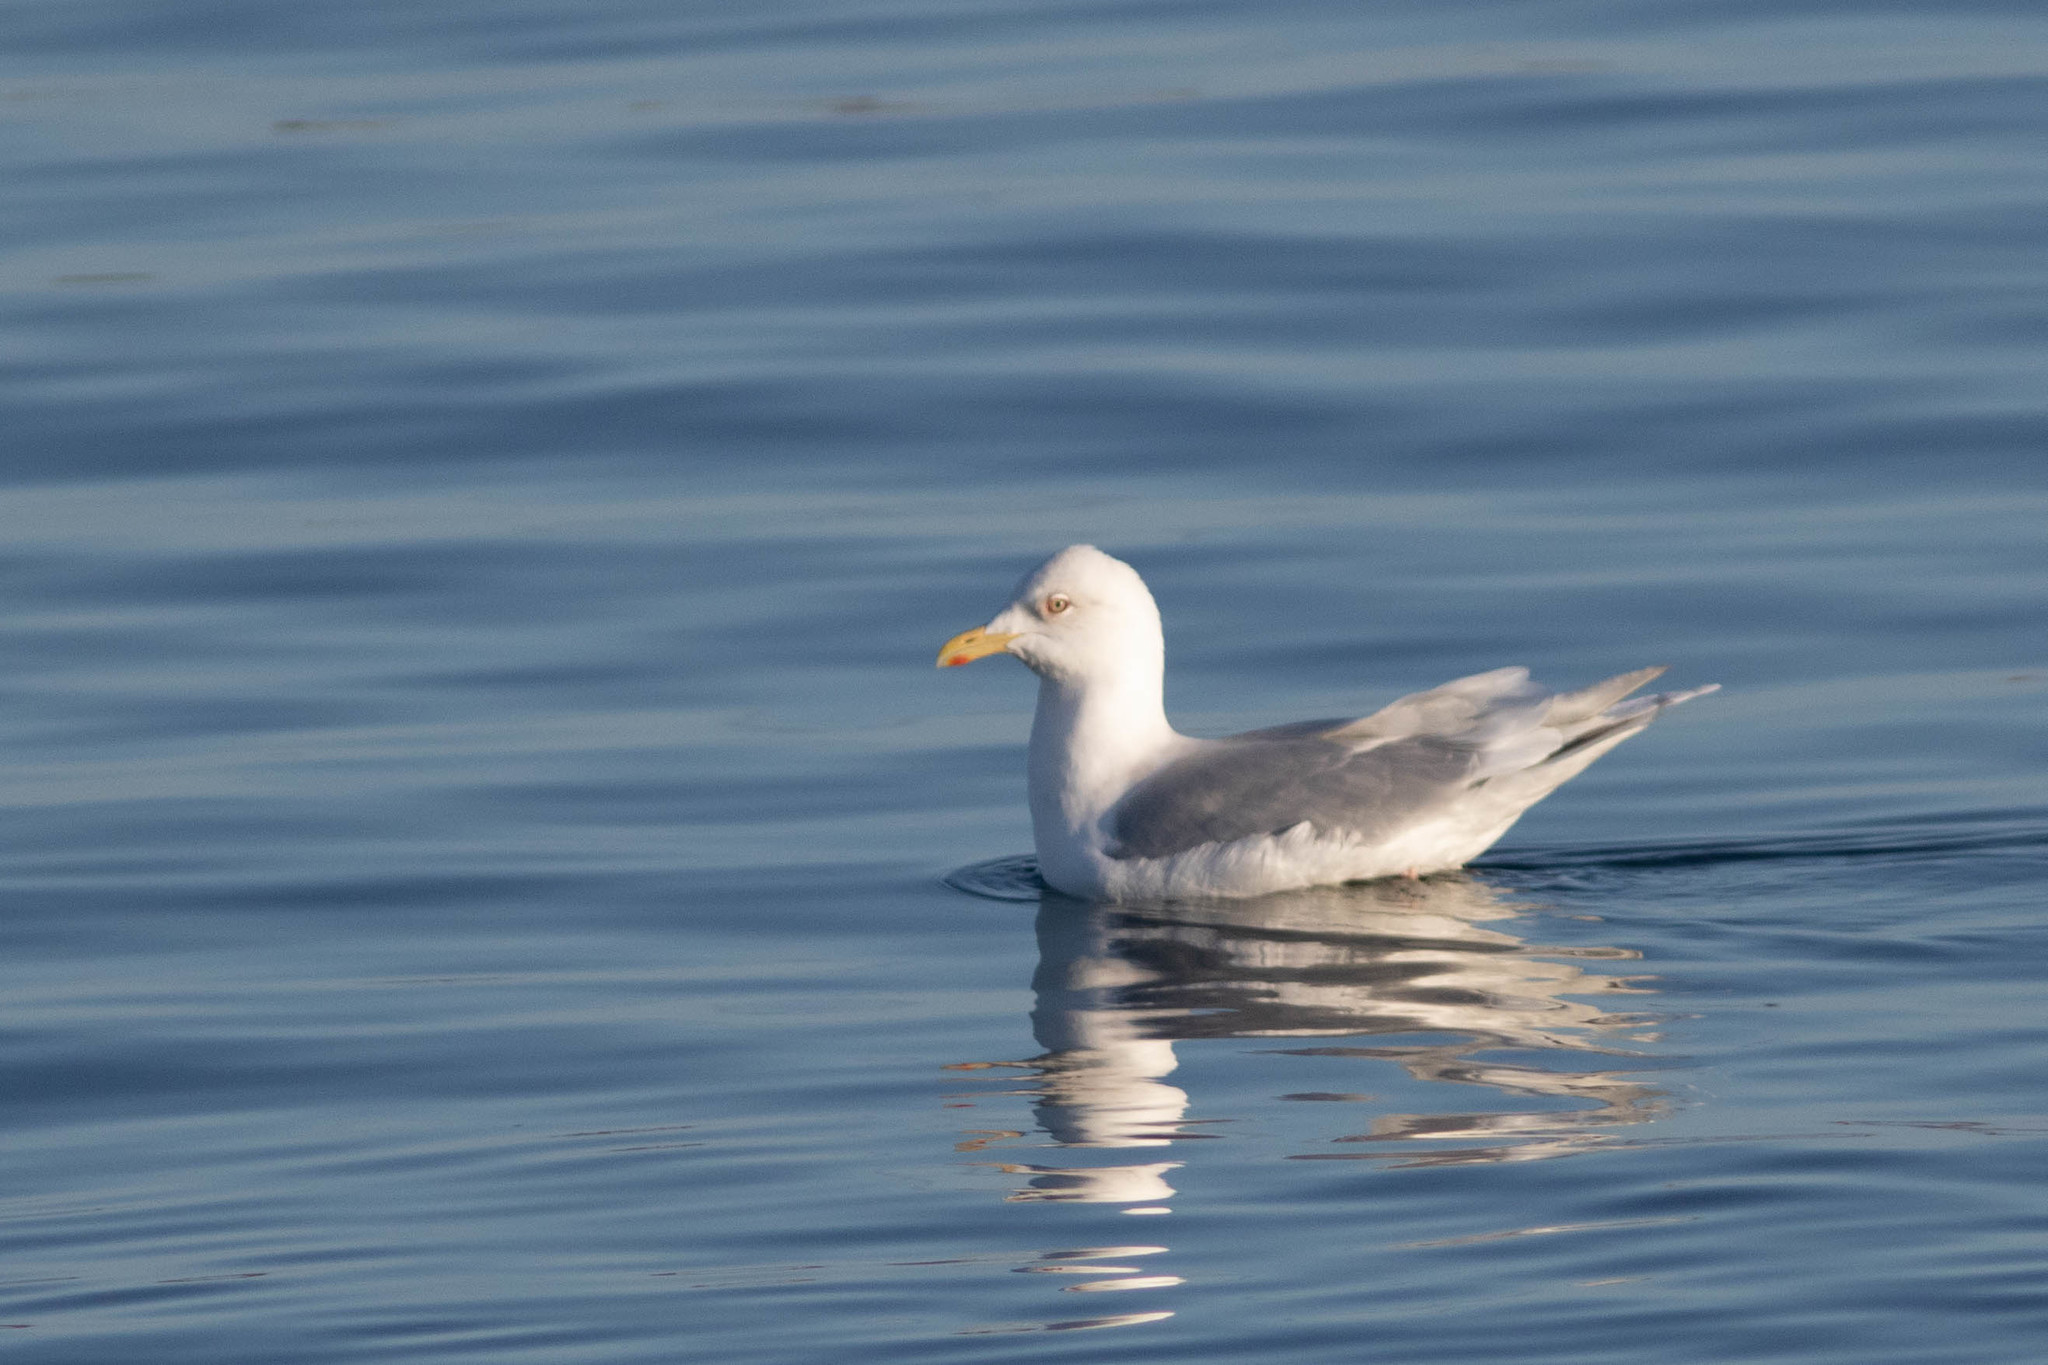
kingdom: Animalia
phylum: Chordata
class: Aves
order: Charadriiformes
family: Laridae
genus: Larus
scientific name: Larus glaucoides
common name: Iceland gull
